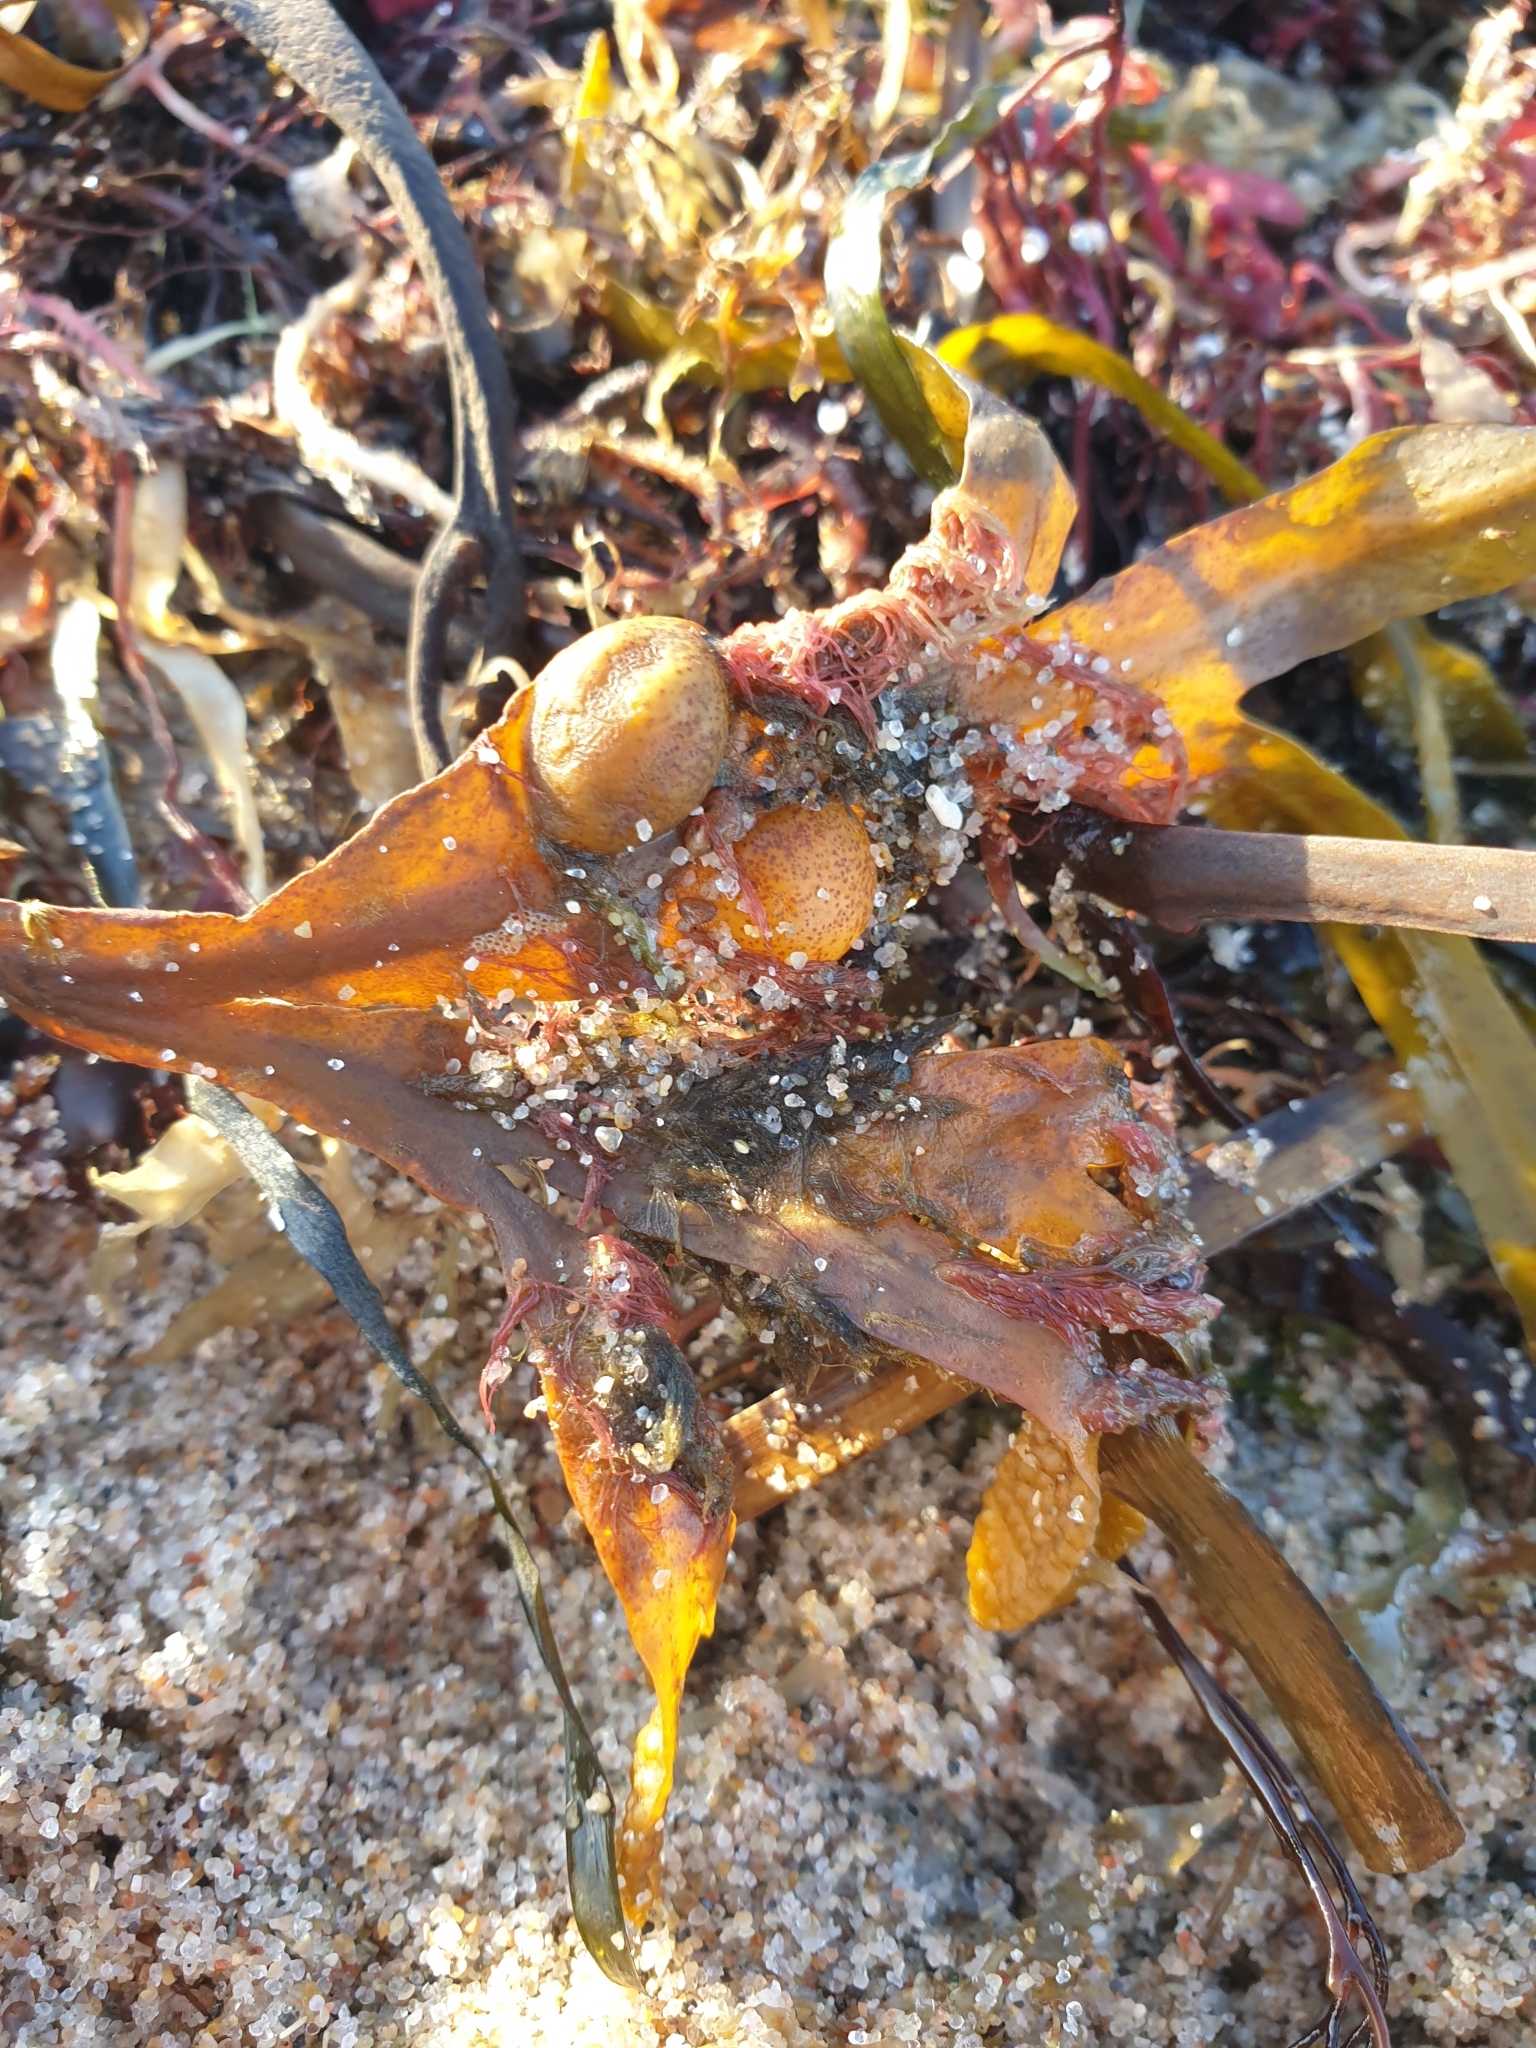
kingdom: Chromista
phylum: Ochrophyta
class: Phaeophyceae
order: Fucales
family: Fucaceae
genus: Fucus
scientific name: Fucus vesiculosus
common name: Bladder wrack
